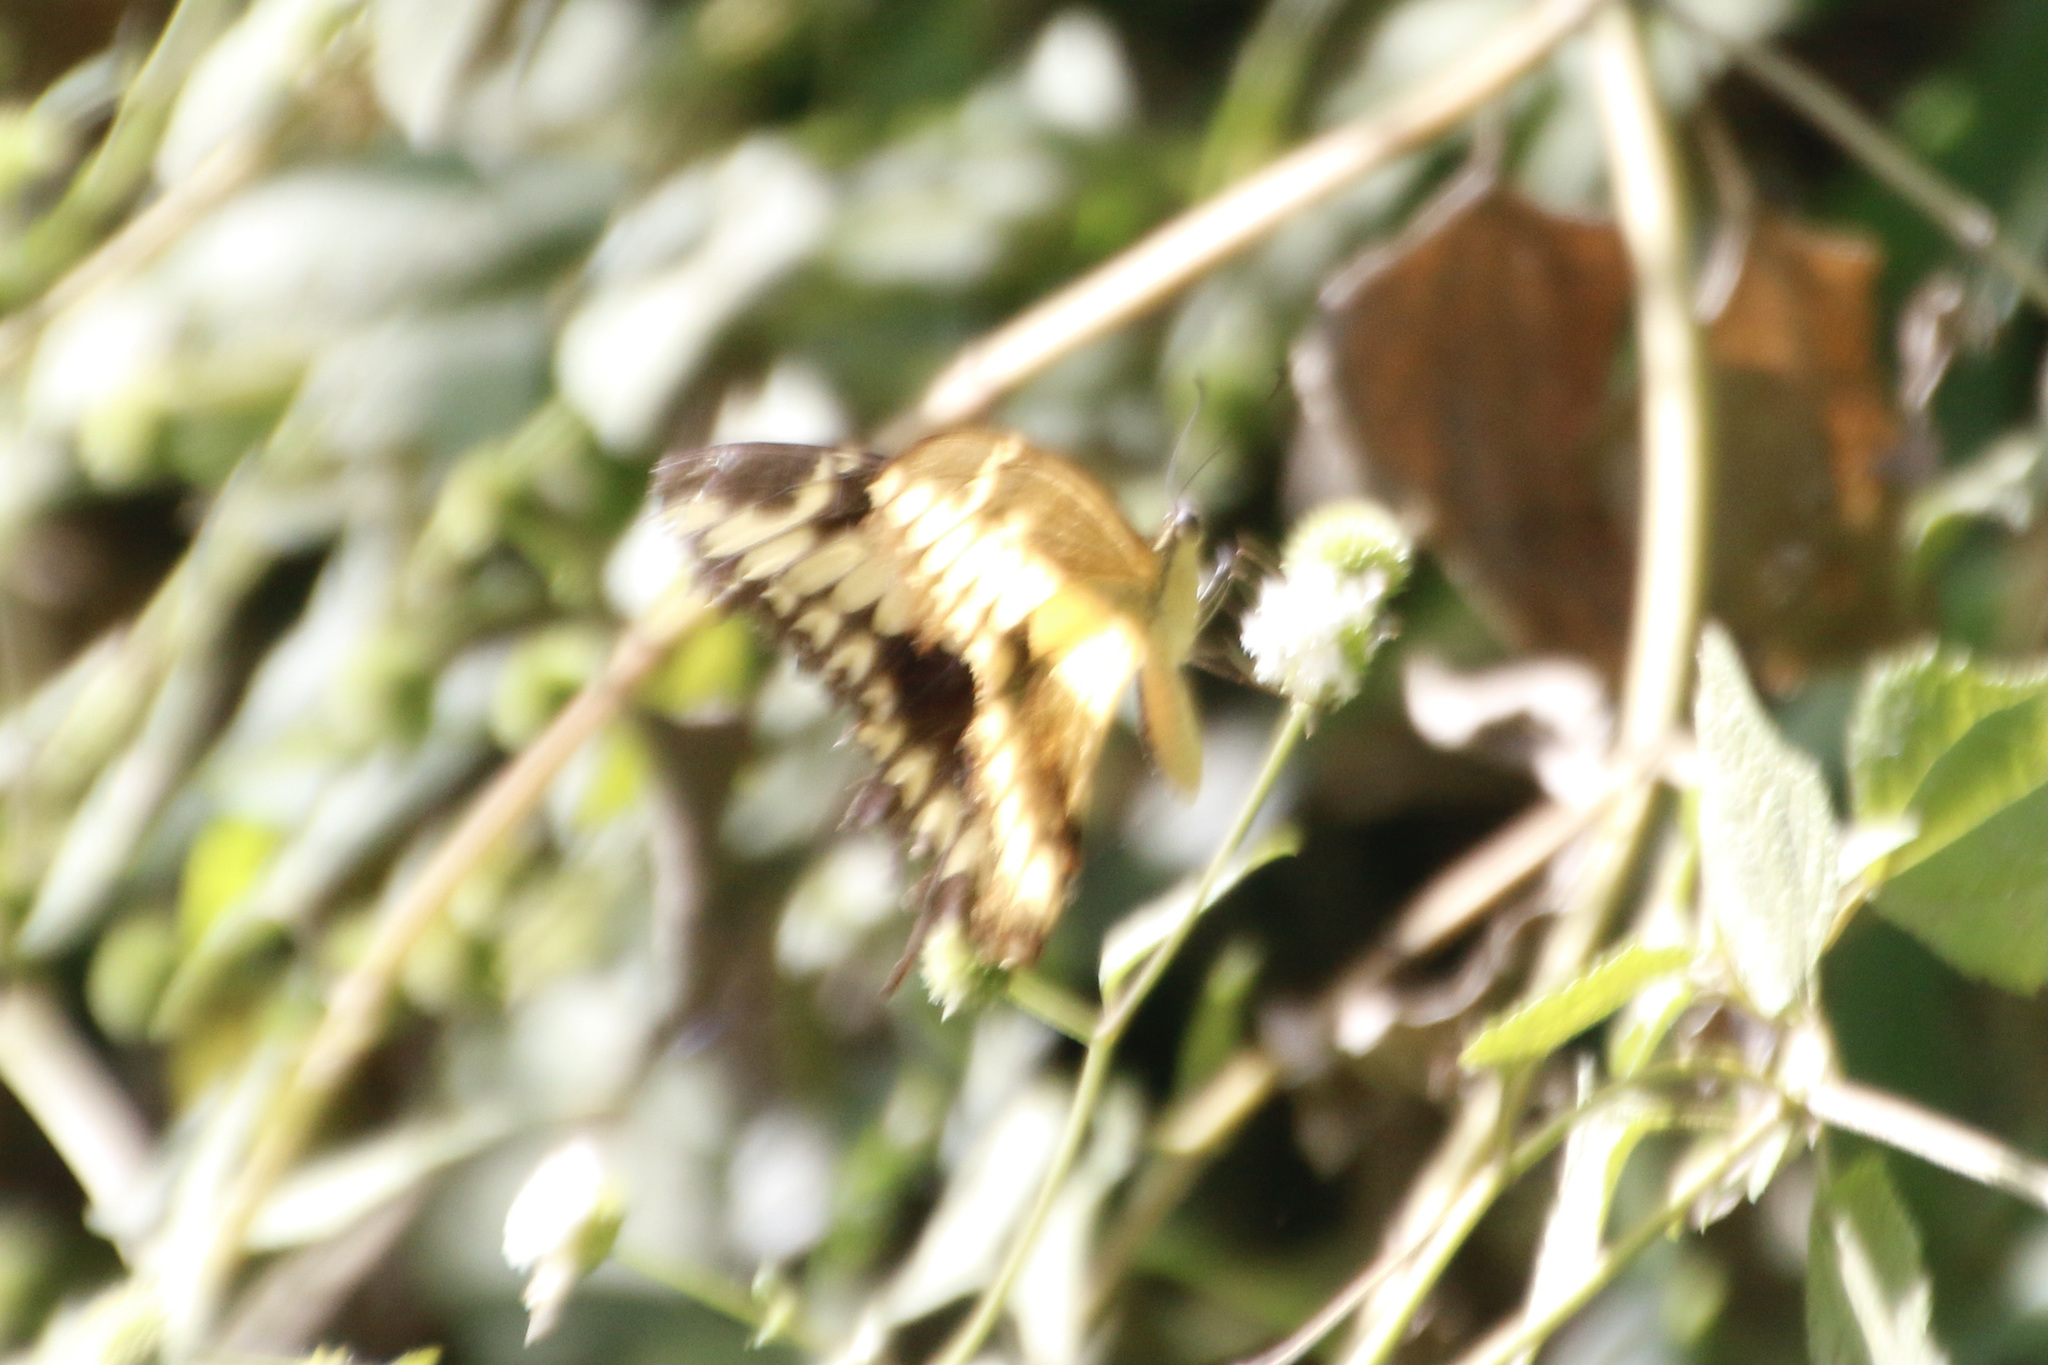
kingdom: Animalia
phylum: Arthropoda
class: Insecta
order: Lepidoptera
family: Papilionidae
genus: Papilio
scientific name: Papilio thoas
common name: King swallowtail
